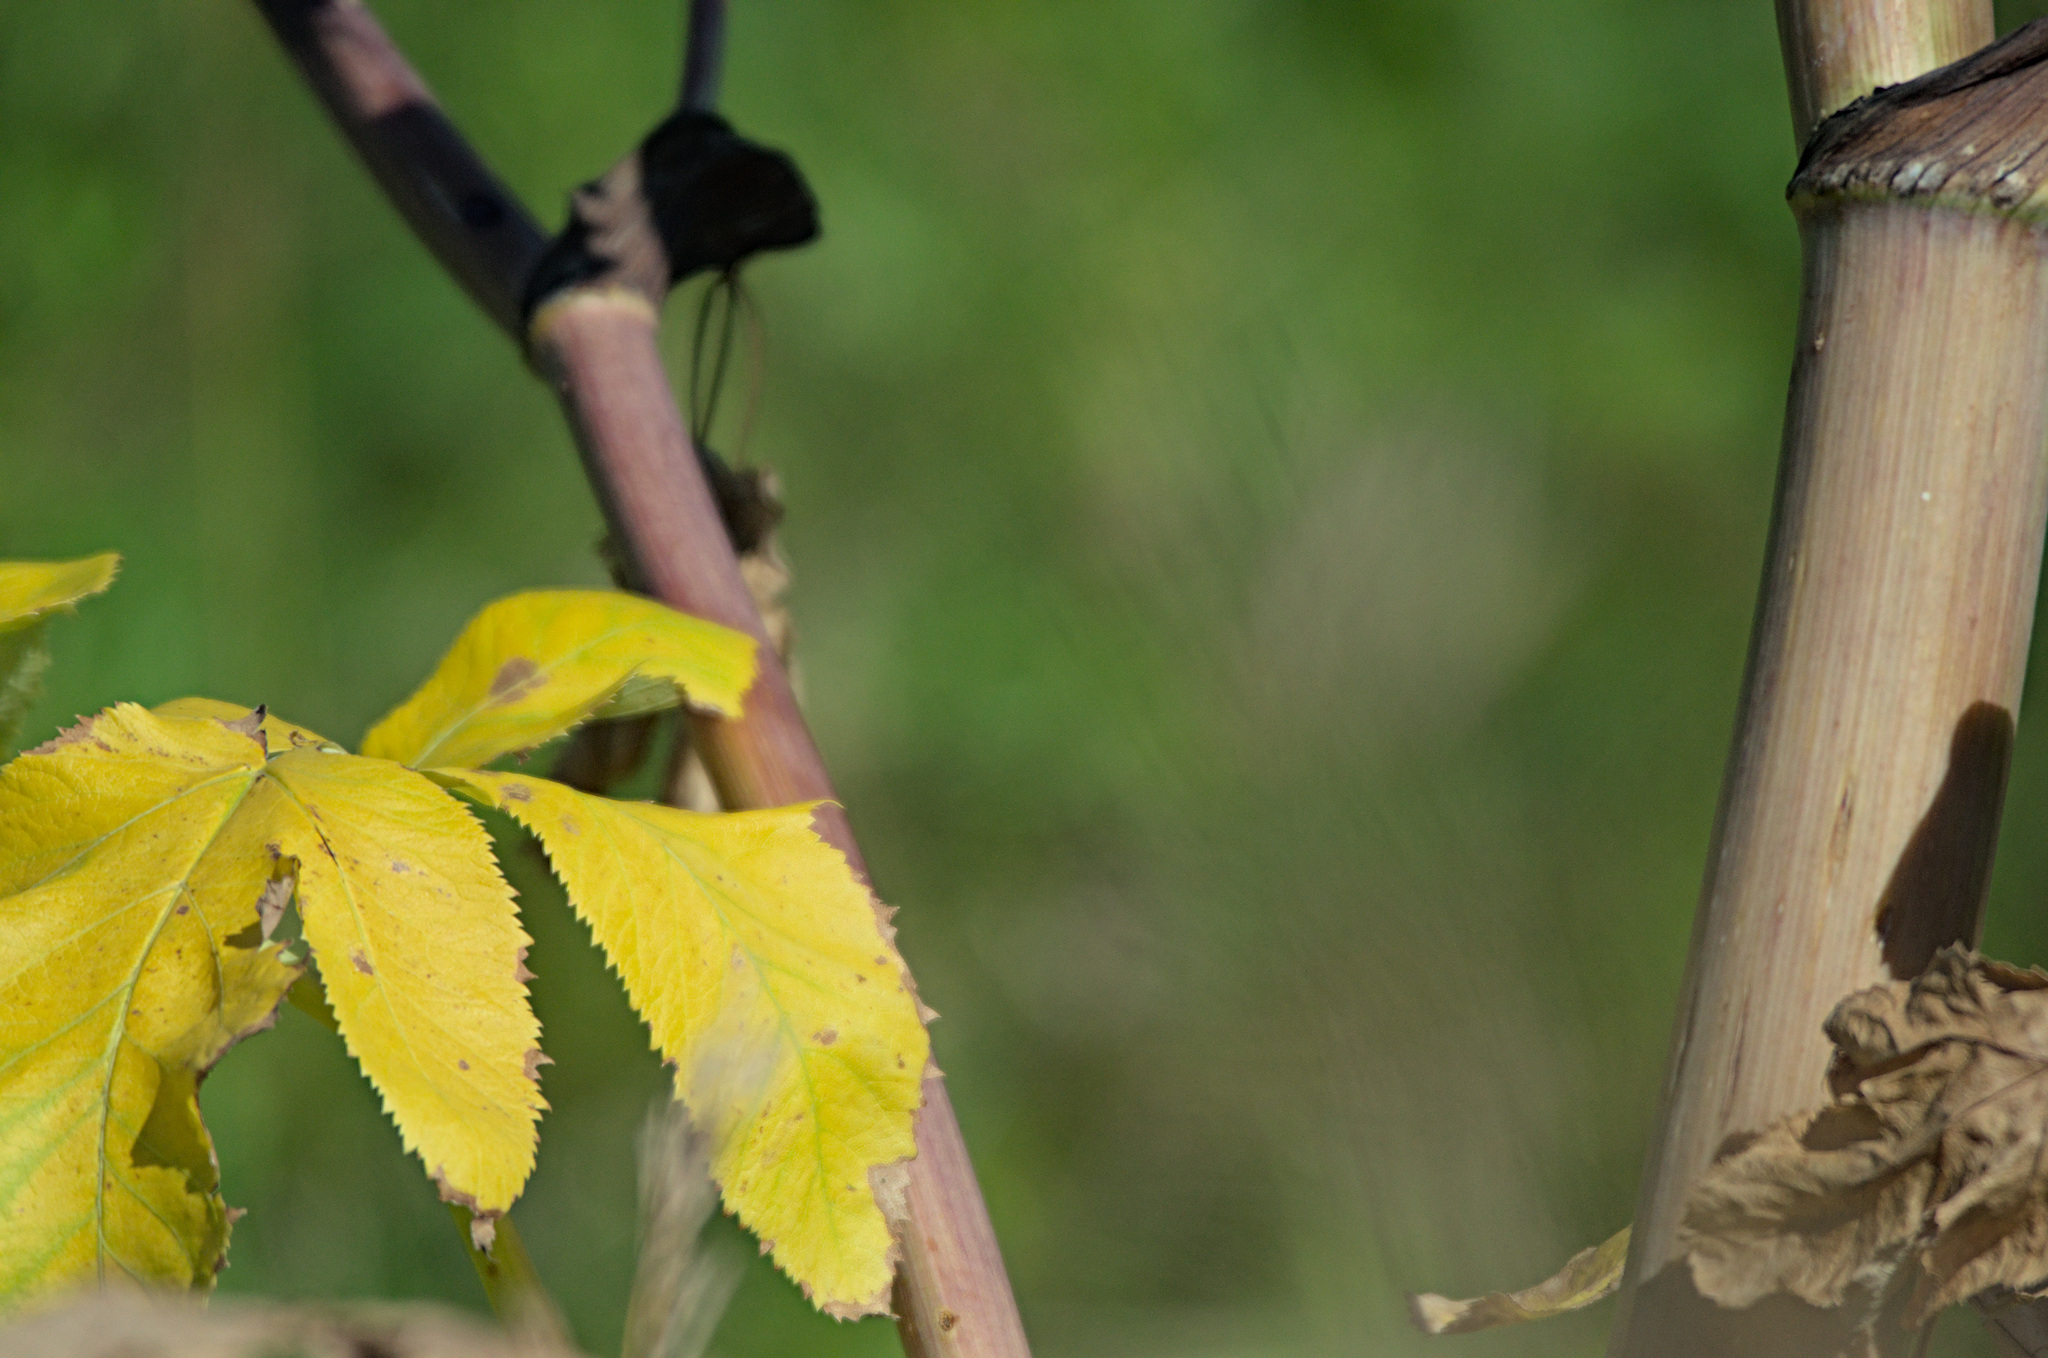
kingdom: Plantae
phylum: Tracheophyta
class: Magnoliopsida
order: Apiales
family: Apiaceae
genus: Angelica
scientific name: Angelica decurrens
